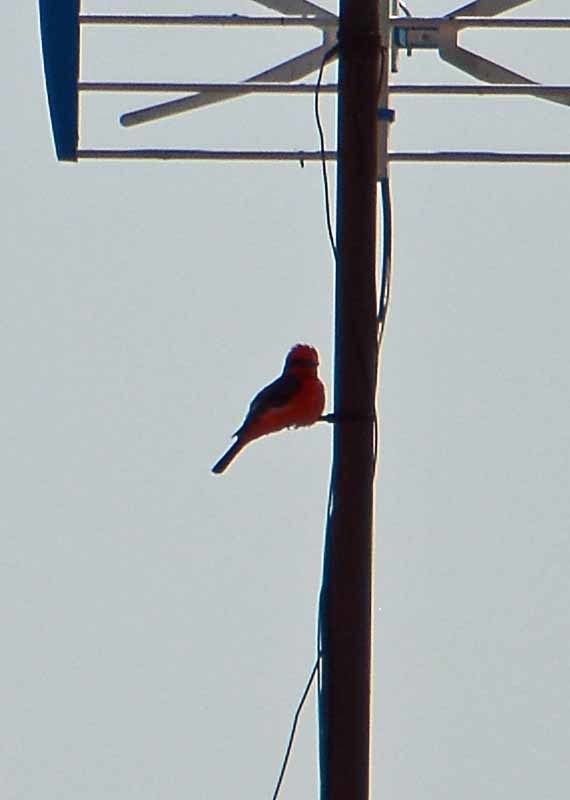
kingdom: Animalia
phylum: Chordata
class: Aves
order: Passeriformes
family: Tyrannidae
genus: Pyrocephalus
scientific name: Pyrocephalus rubinus
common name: Vermilion flycatcher
